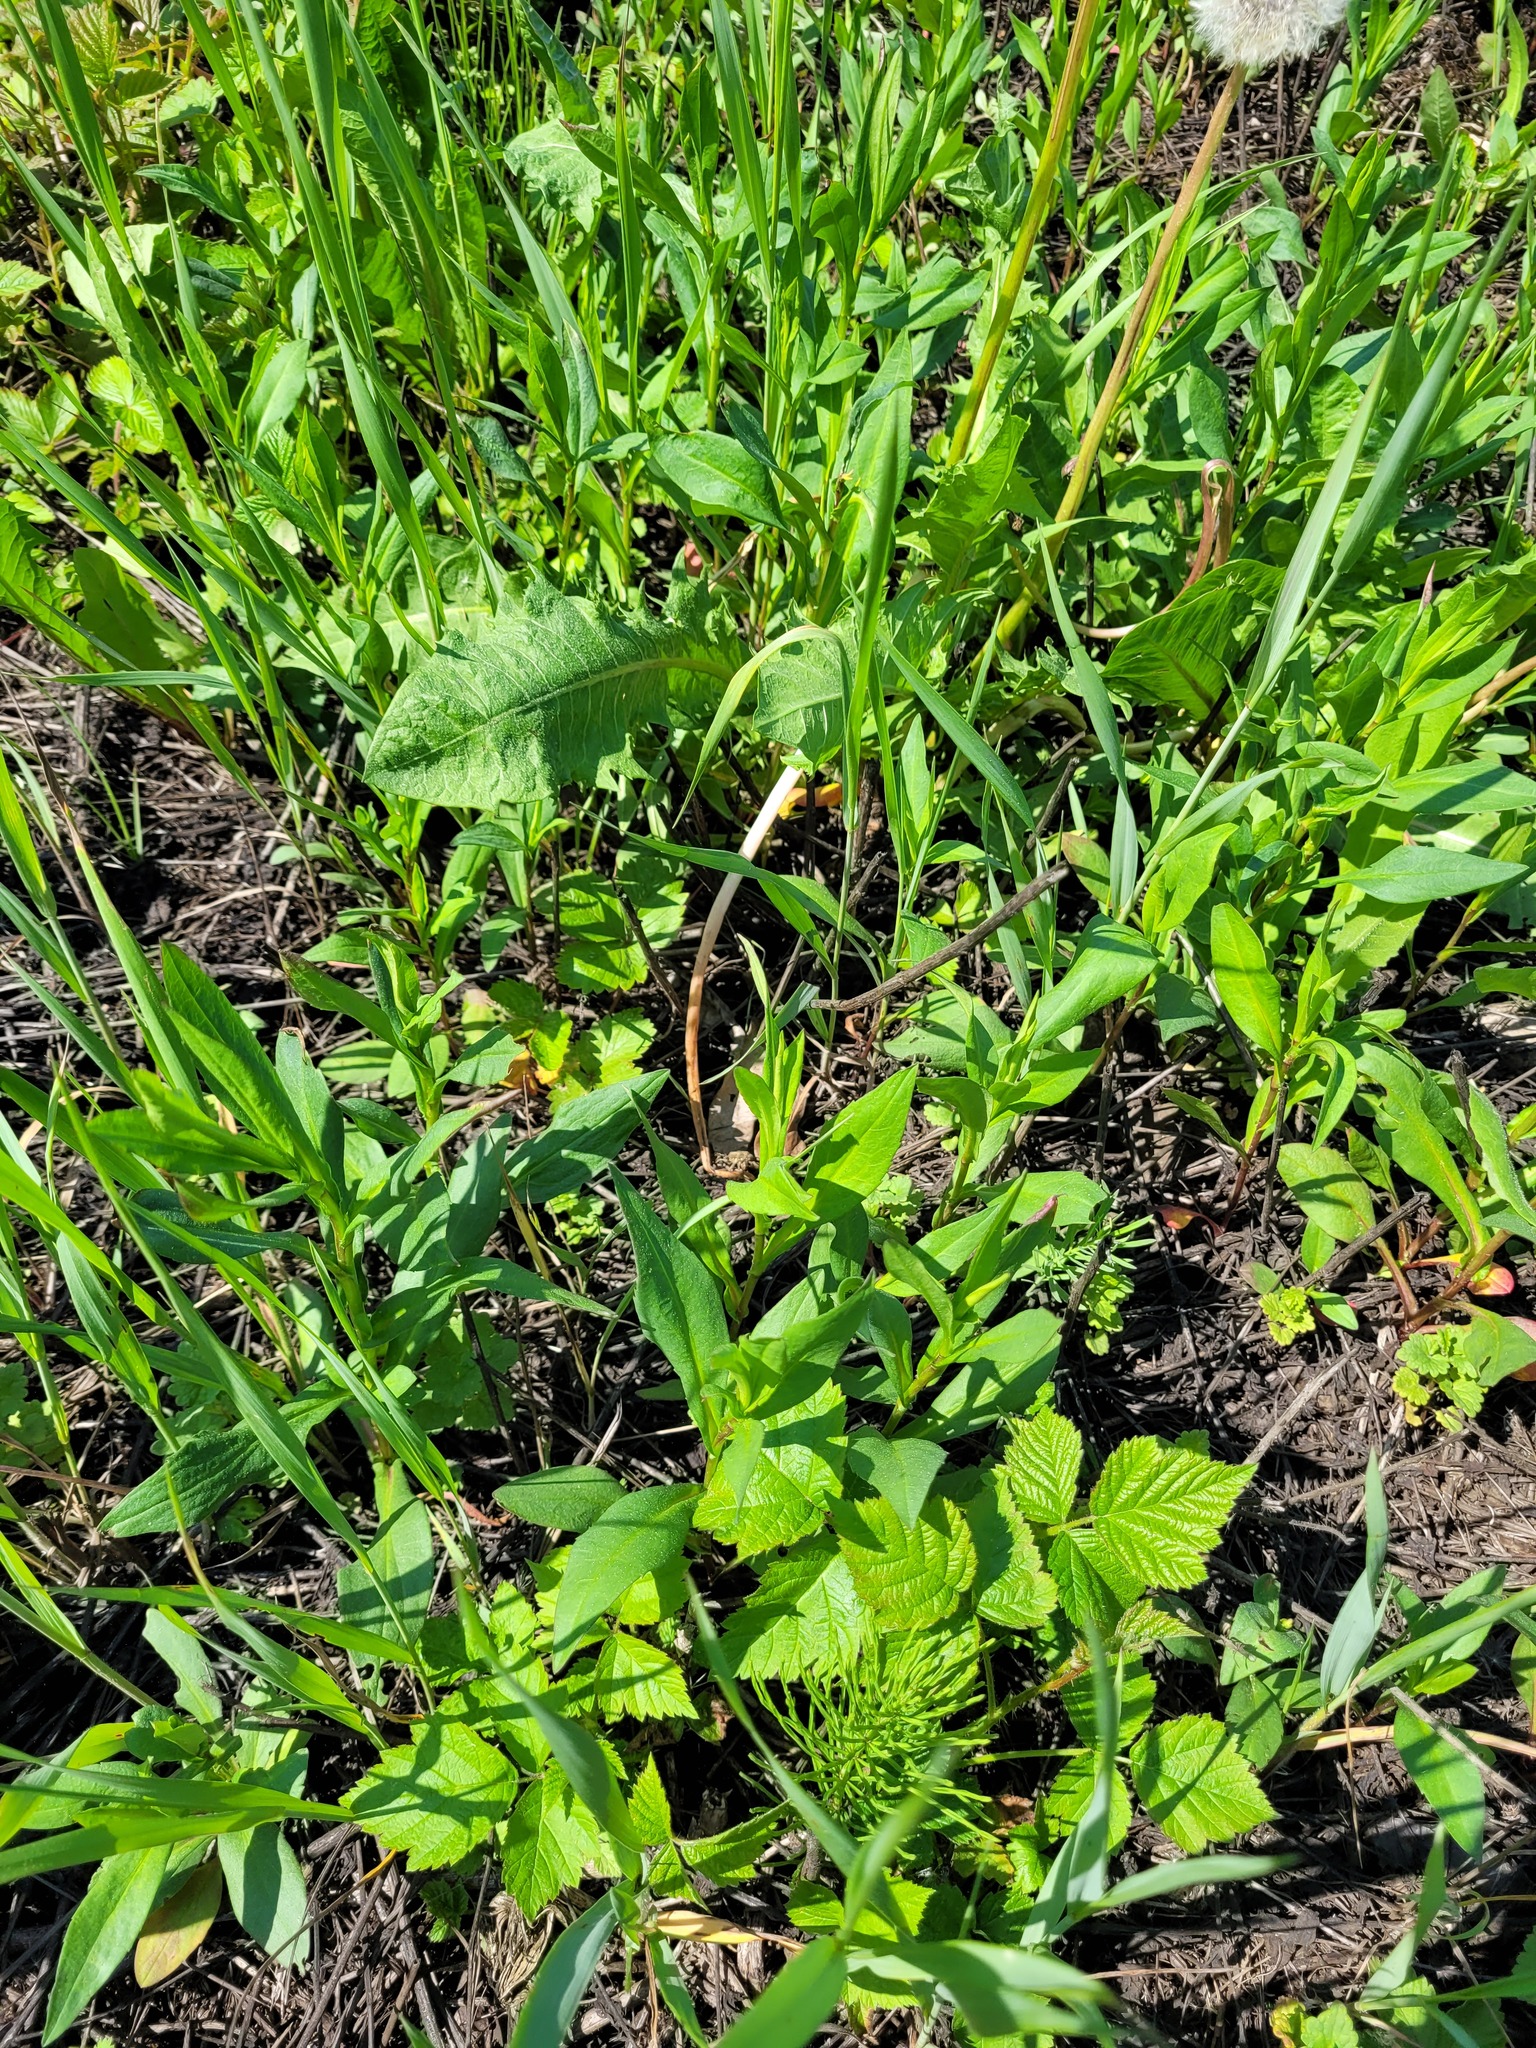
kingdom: Plantae
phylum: Tracheophyta
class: Magnoliopsida
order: Asterales
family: Asteraceae
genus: Symphyotrichum
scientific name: Symphyotrichum novi-belgii
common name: Michaelmas daisy
